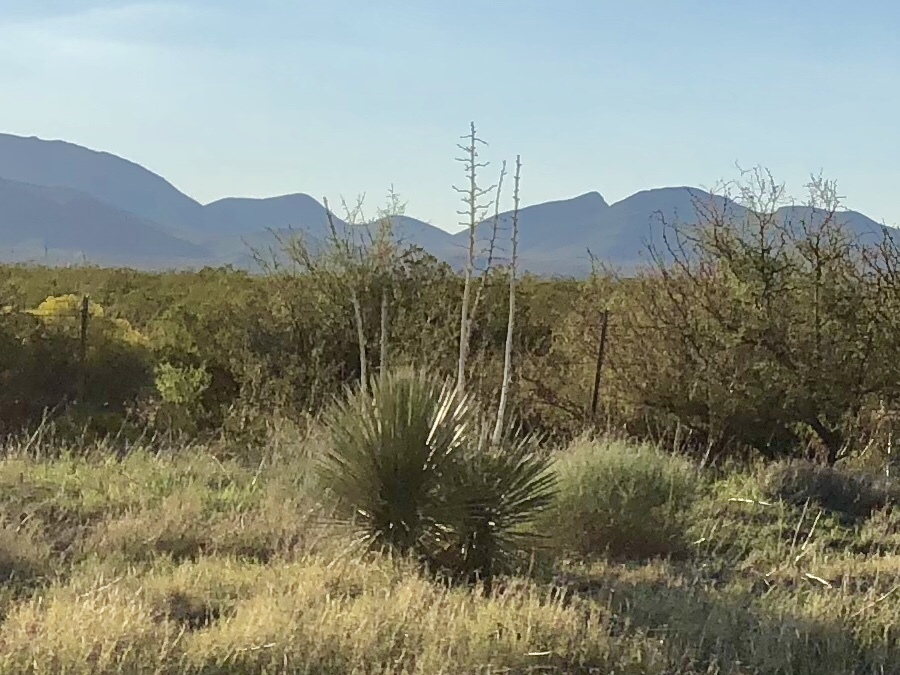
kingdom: Plantae
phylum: Tracheophyta
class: Liliopsida
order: Asparagales
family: Asparagaceae
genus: Yucca
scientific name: Yucca elata
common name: Palmella
